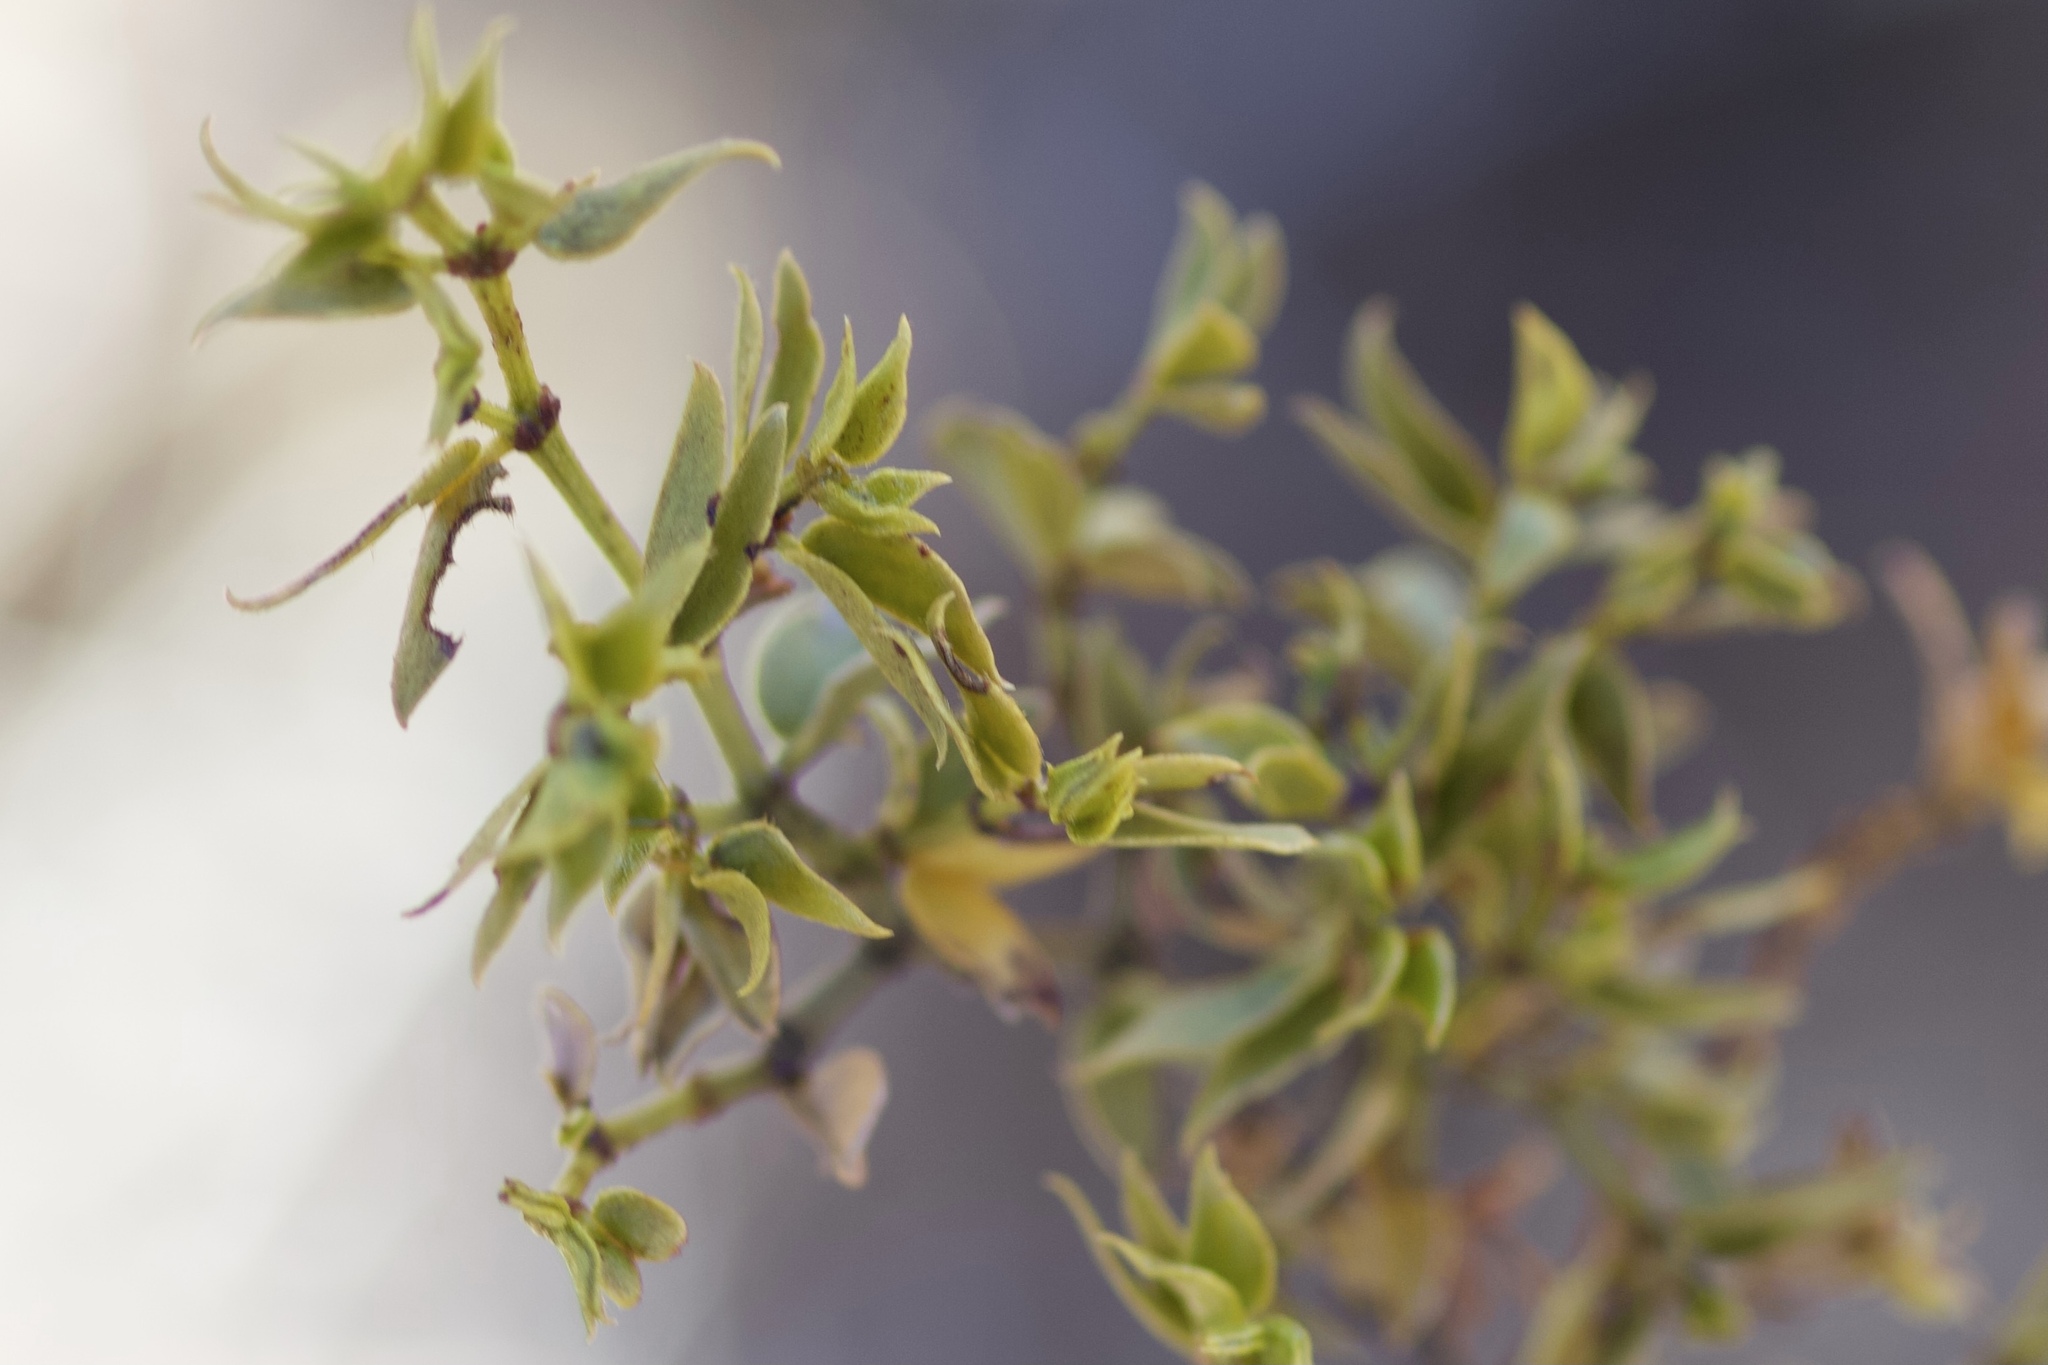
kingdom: Plantae
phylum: Tracheophyta
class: Magnoliopsida
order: Zygophyllales
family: Zygophyllaceae
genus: Larrea
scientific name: Larrea tridentata
